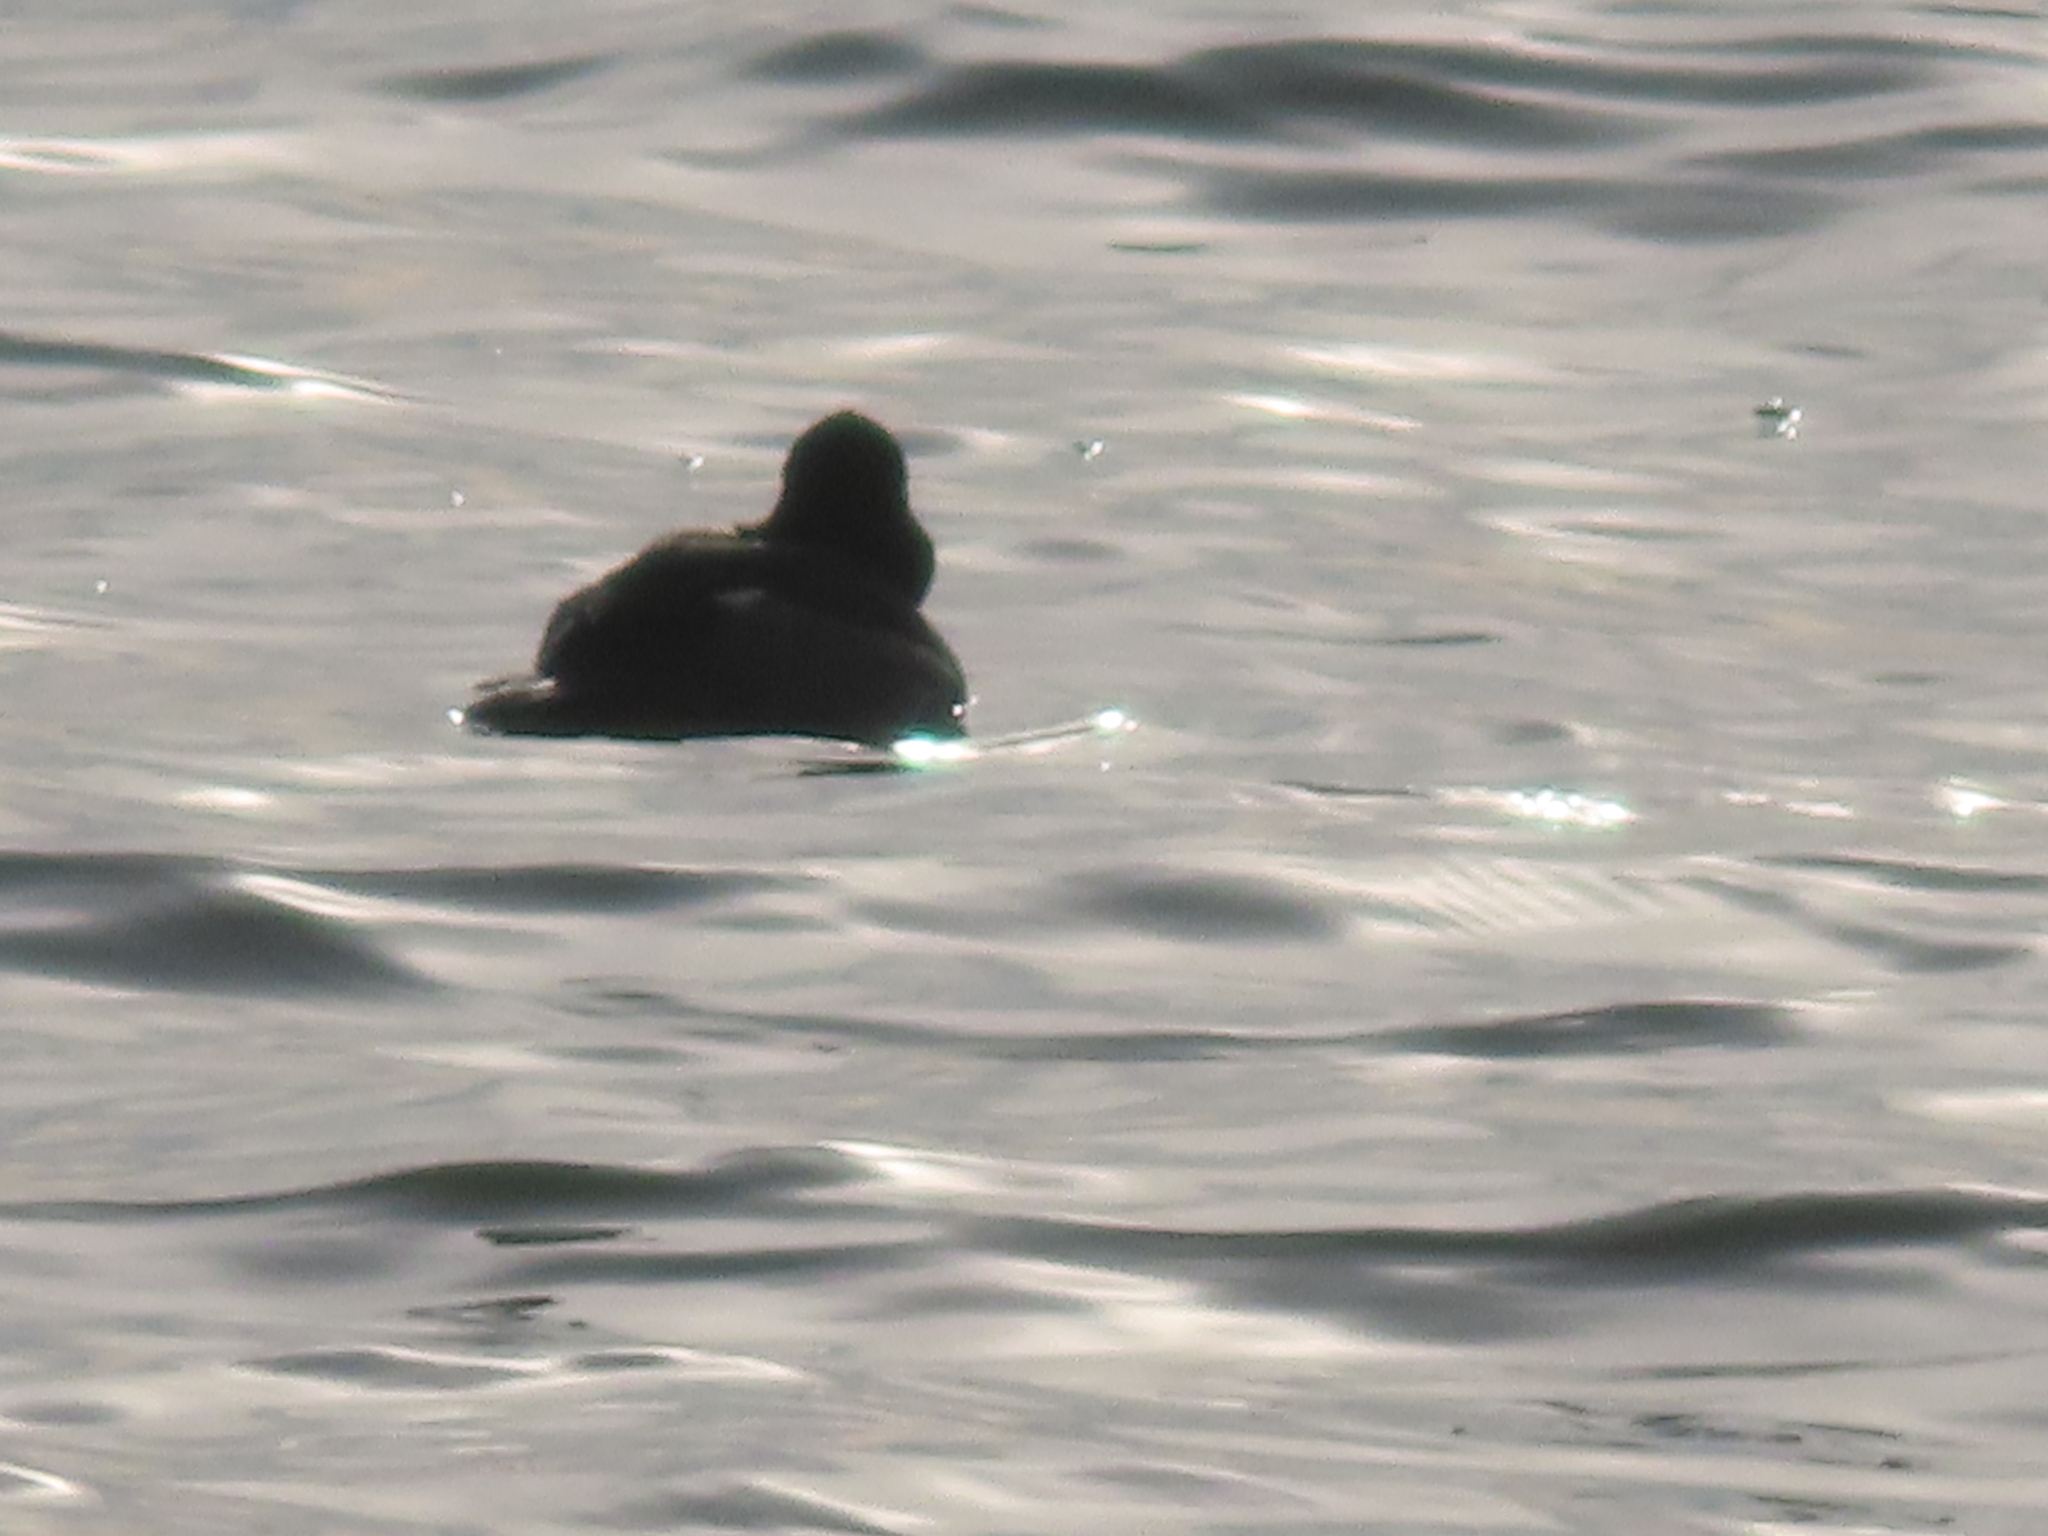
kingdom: Animalia
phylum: Chordata
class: Aves
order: Anseriformes
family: Anatidae
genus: Bucephala
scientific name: Bucephala albeola
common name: Bufflehead
